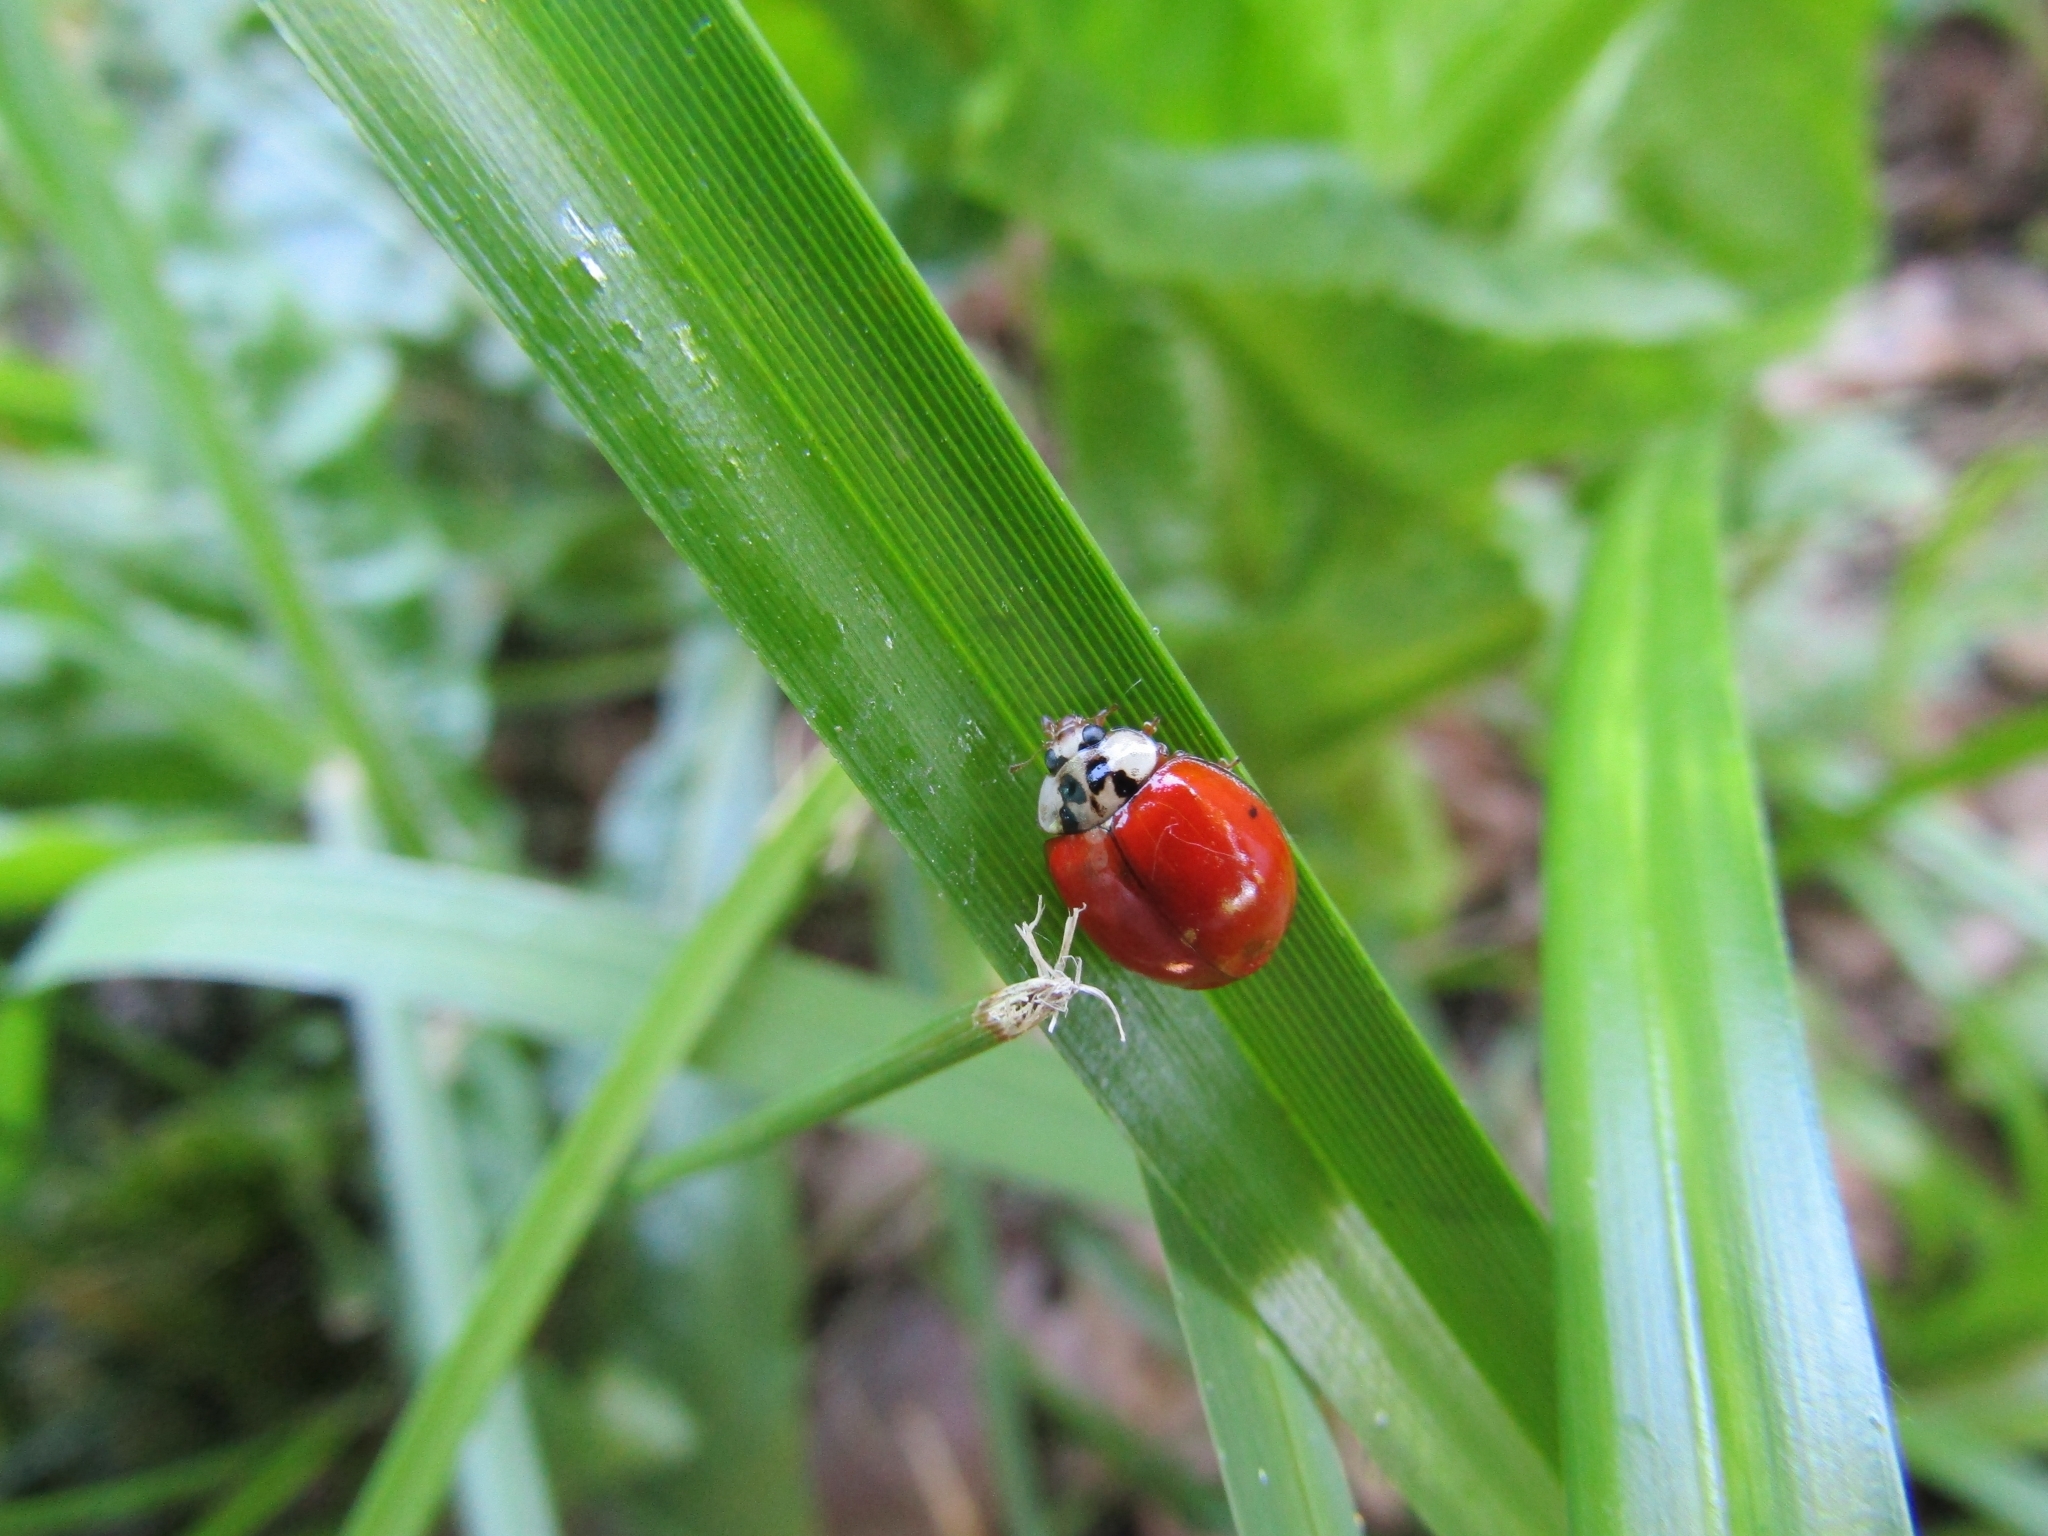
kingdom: Animalia
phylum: Arthropoda
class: Insecta
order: Coleoptera
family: Coccinellidae
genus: Harmonia
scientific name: Harmonia axyridis
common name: Harlequin ladybird
